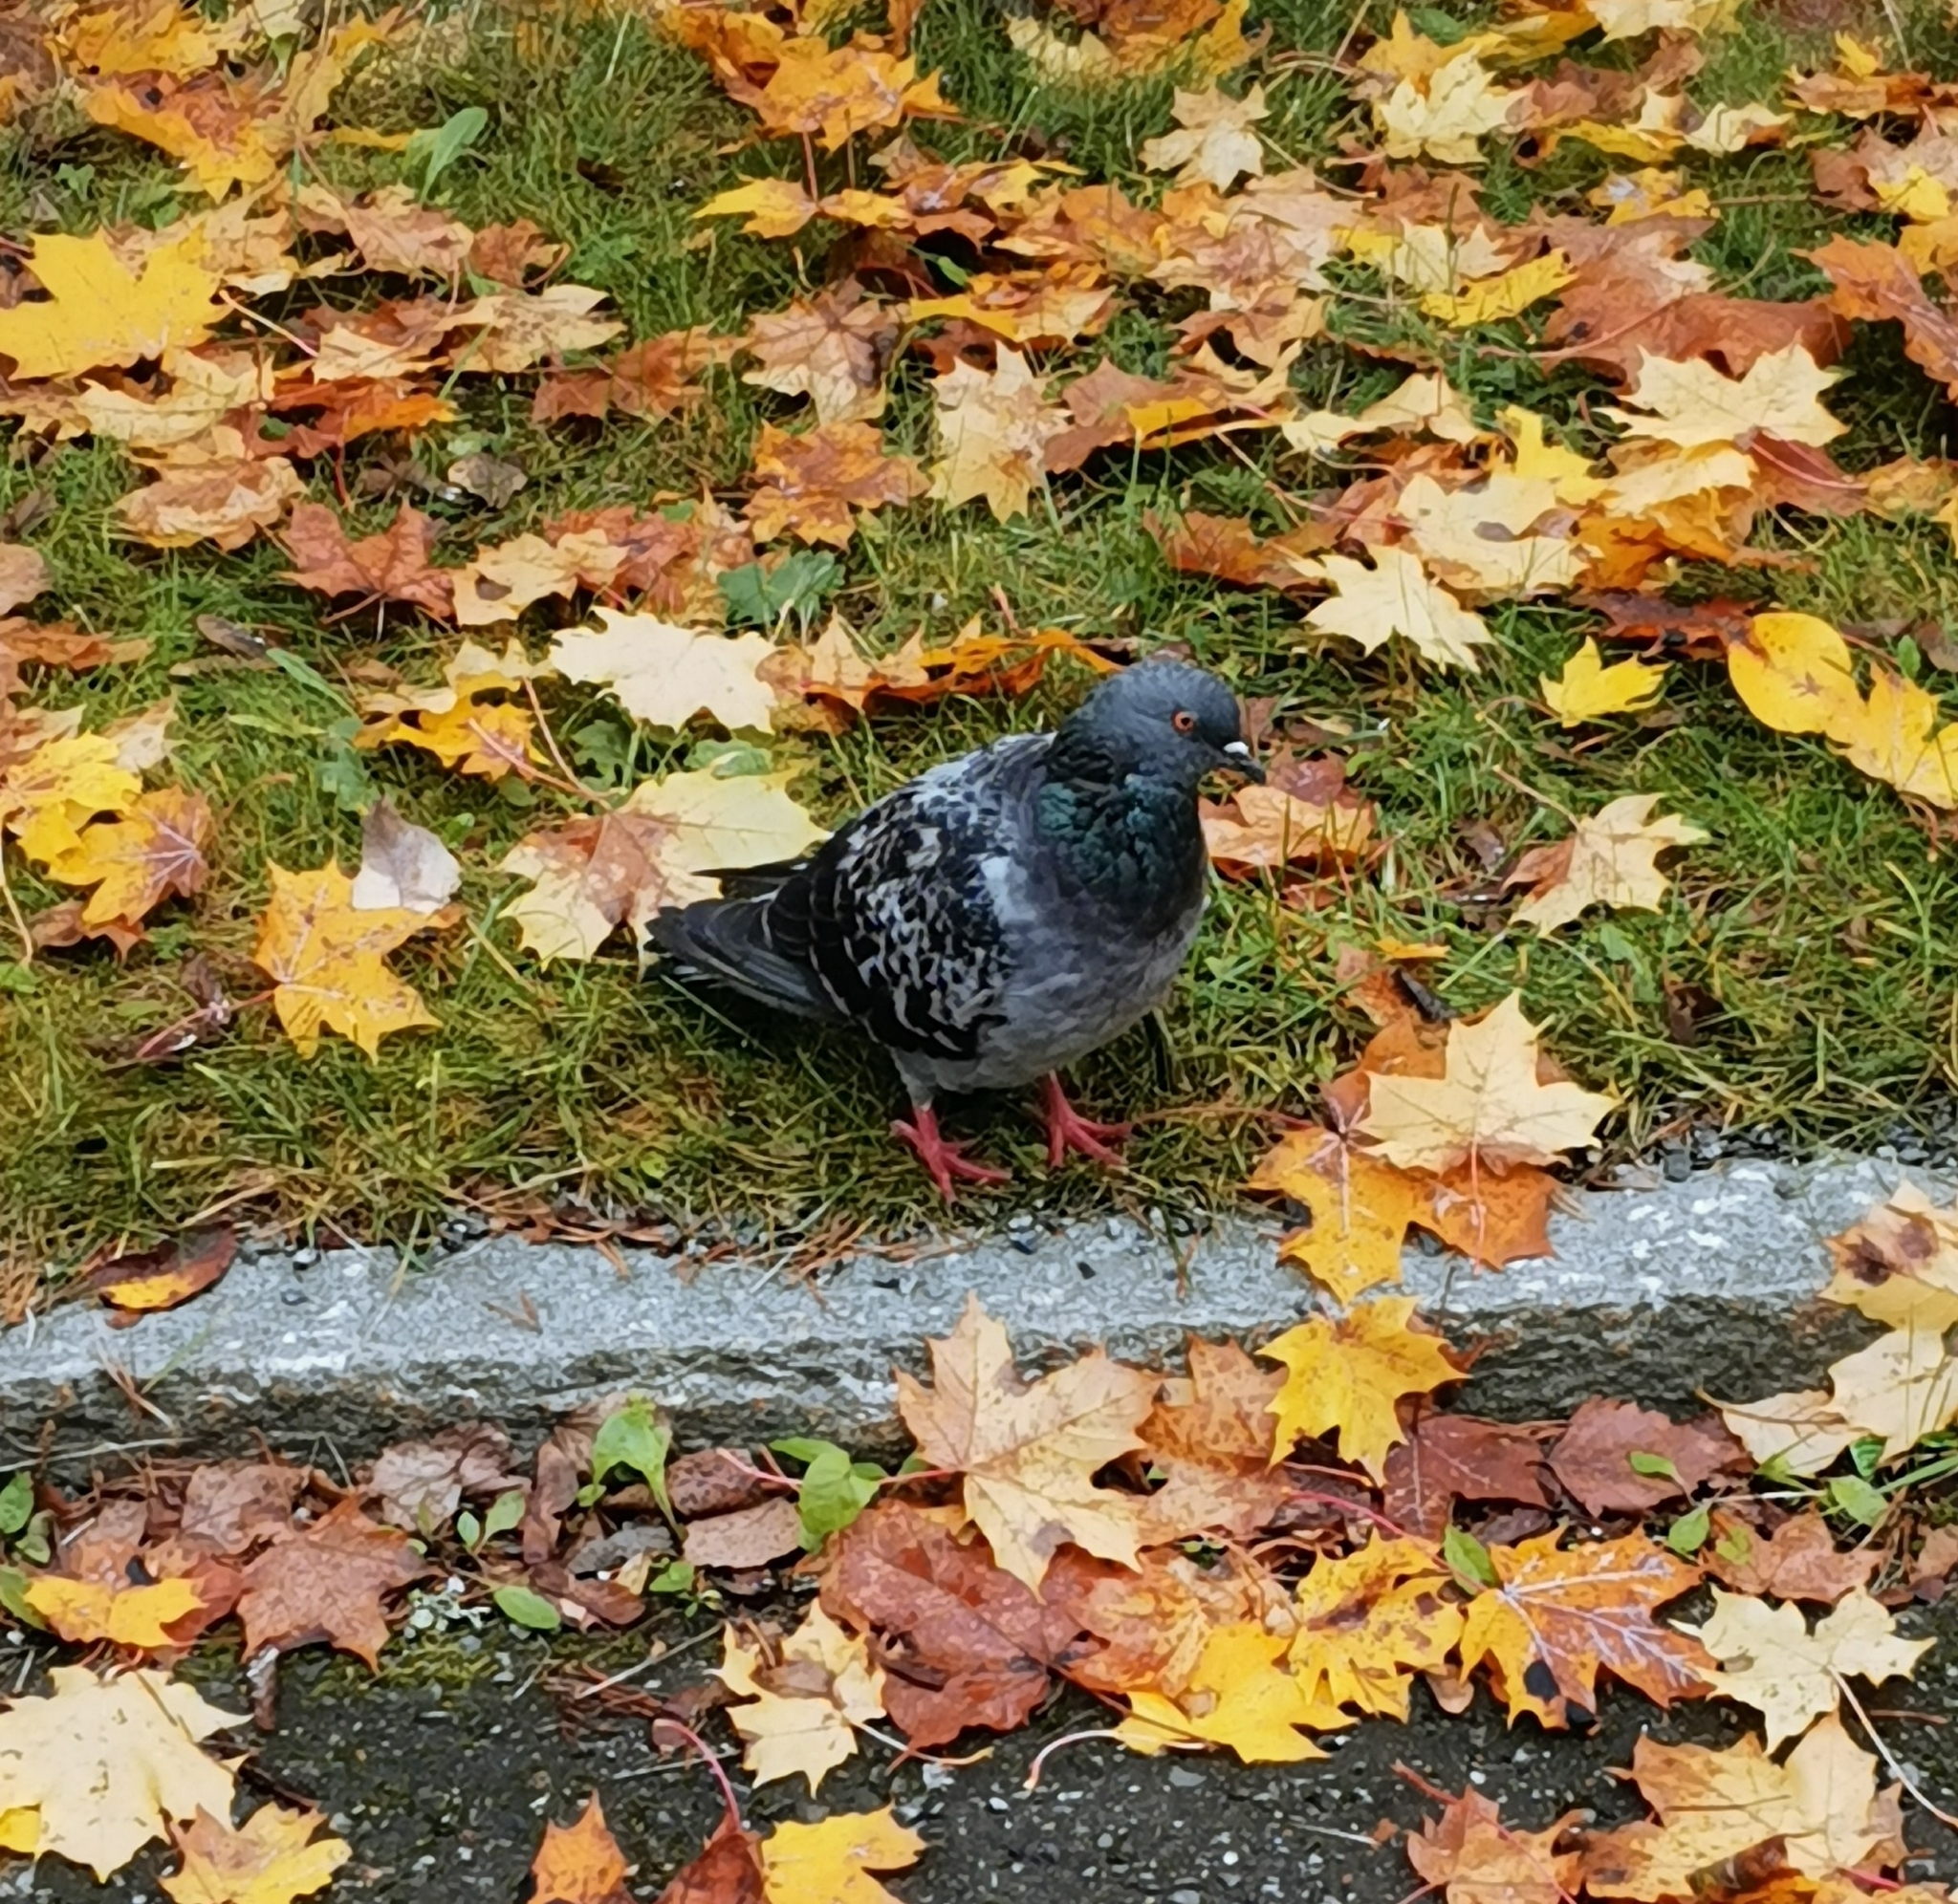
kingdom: Animalia
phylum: Chordata
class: Aves
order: Columbiformes
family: Columbidae
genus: Columba
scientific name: Columba livia
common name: Rock pigeon
